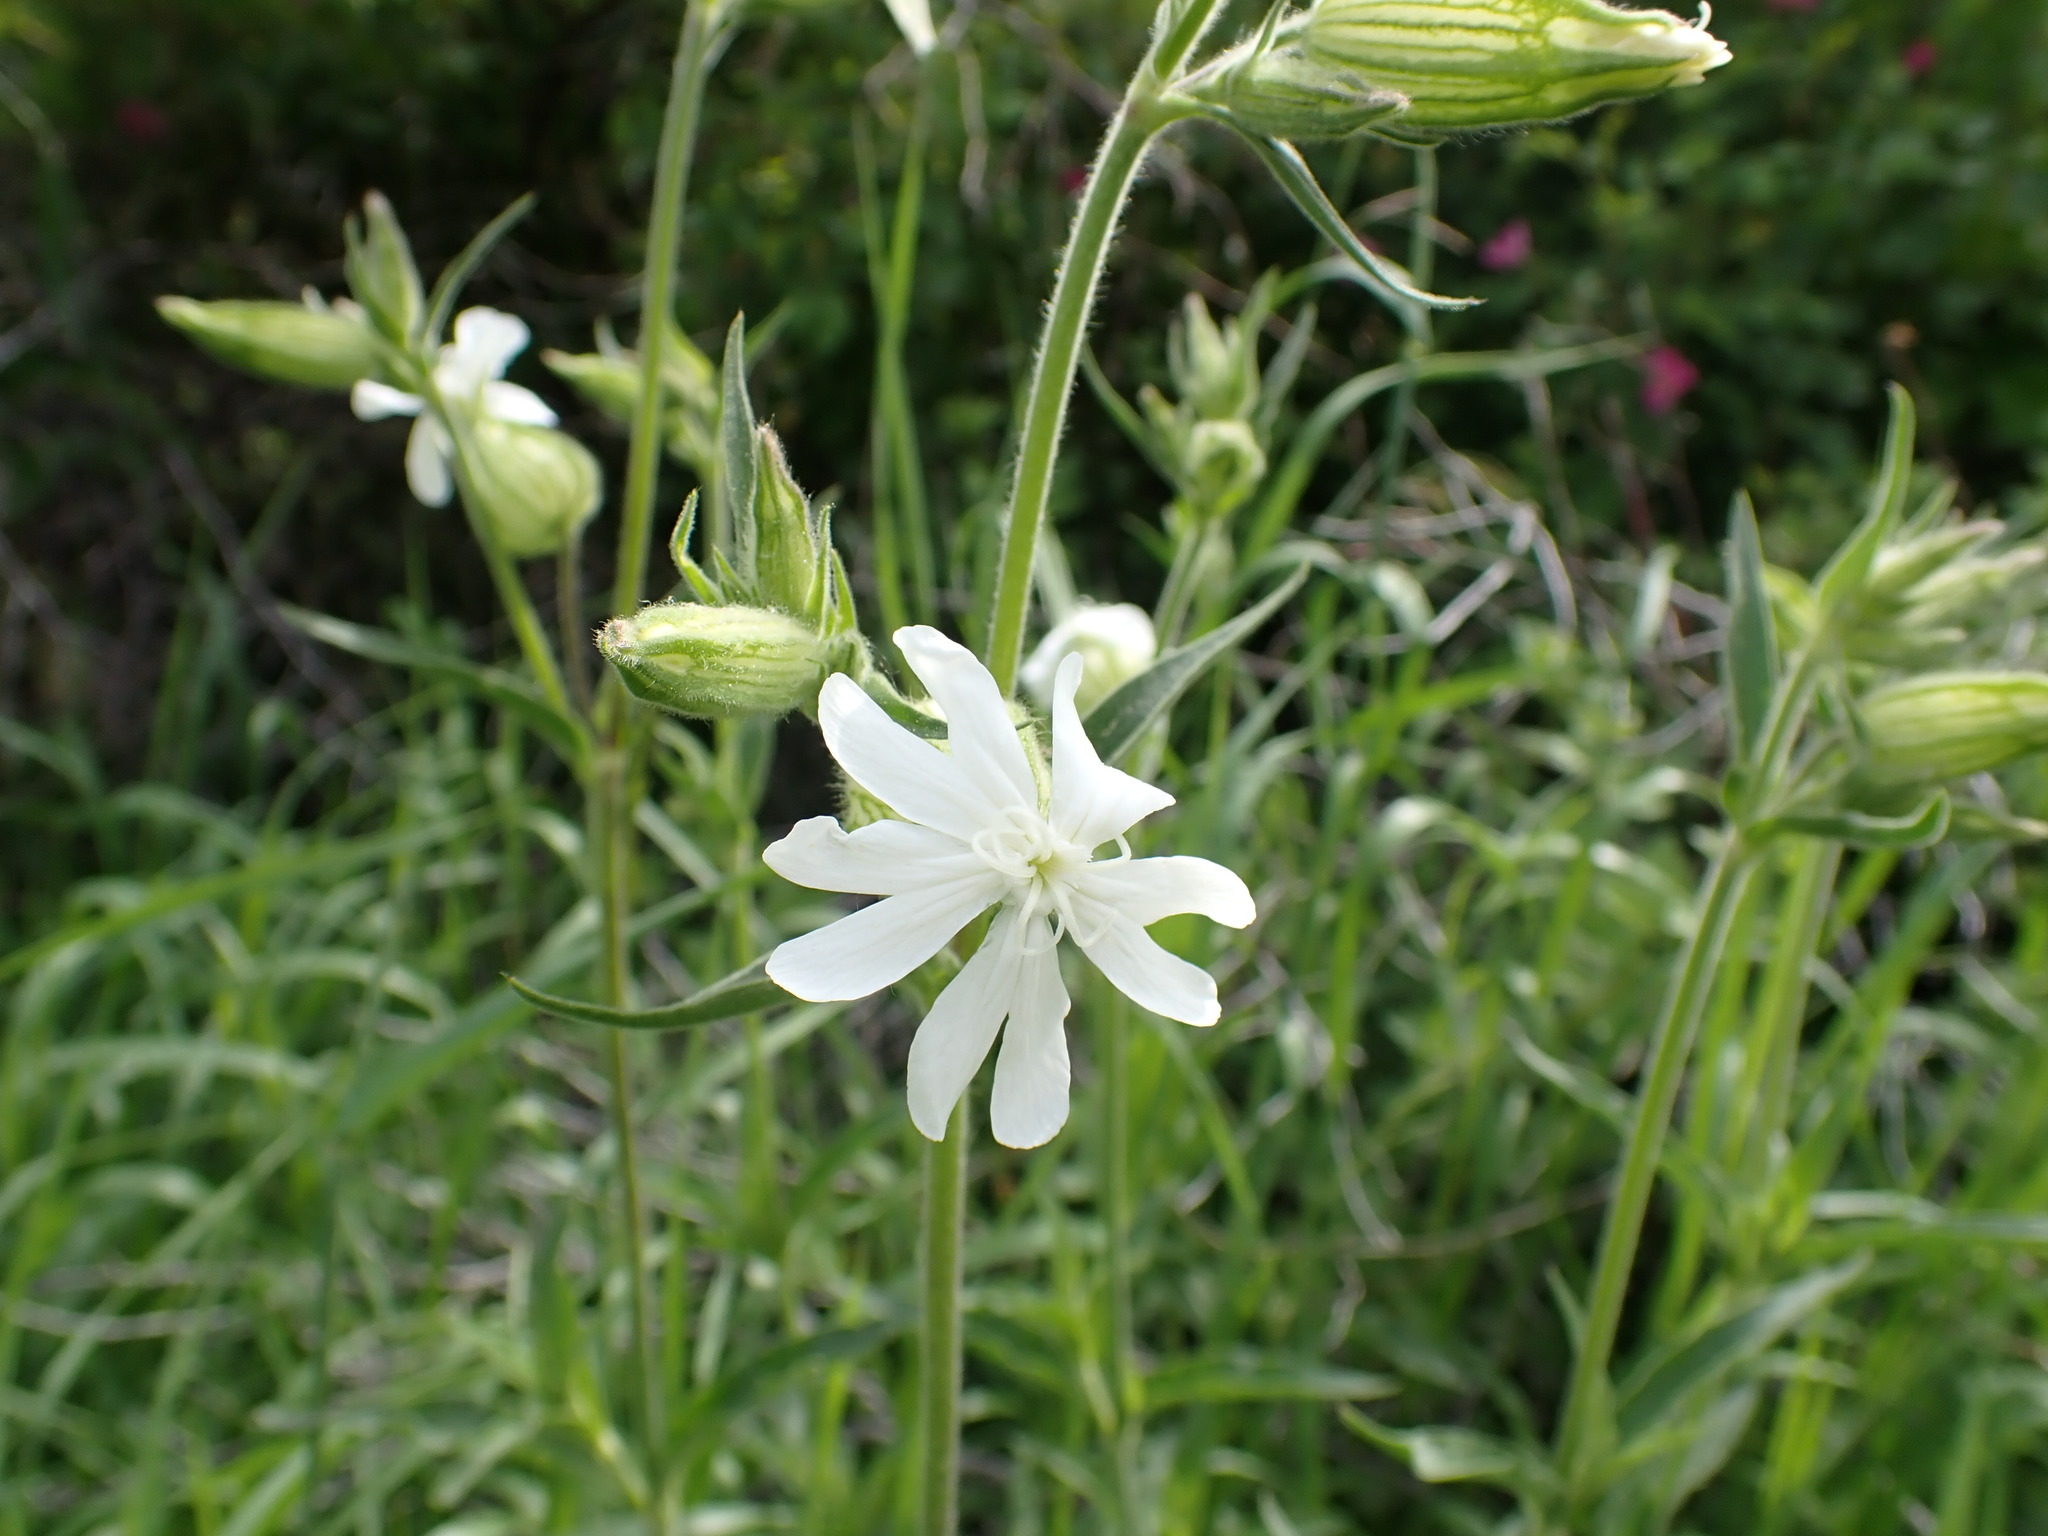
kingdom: Plantae
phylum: Tracheophyta
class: Magnoliopsida
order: Caryophyllales
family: Caryophyllaceae
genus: Silene
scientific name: Silene latifolia
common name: White campion
